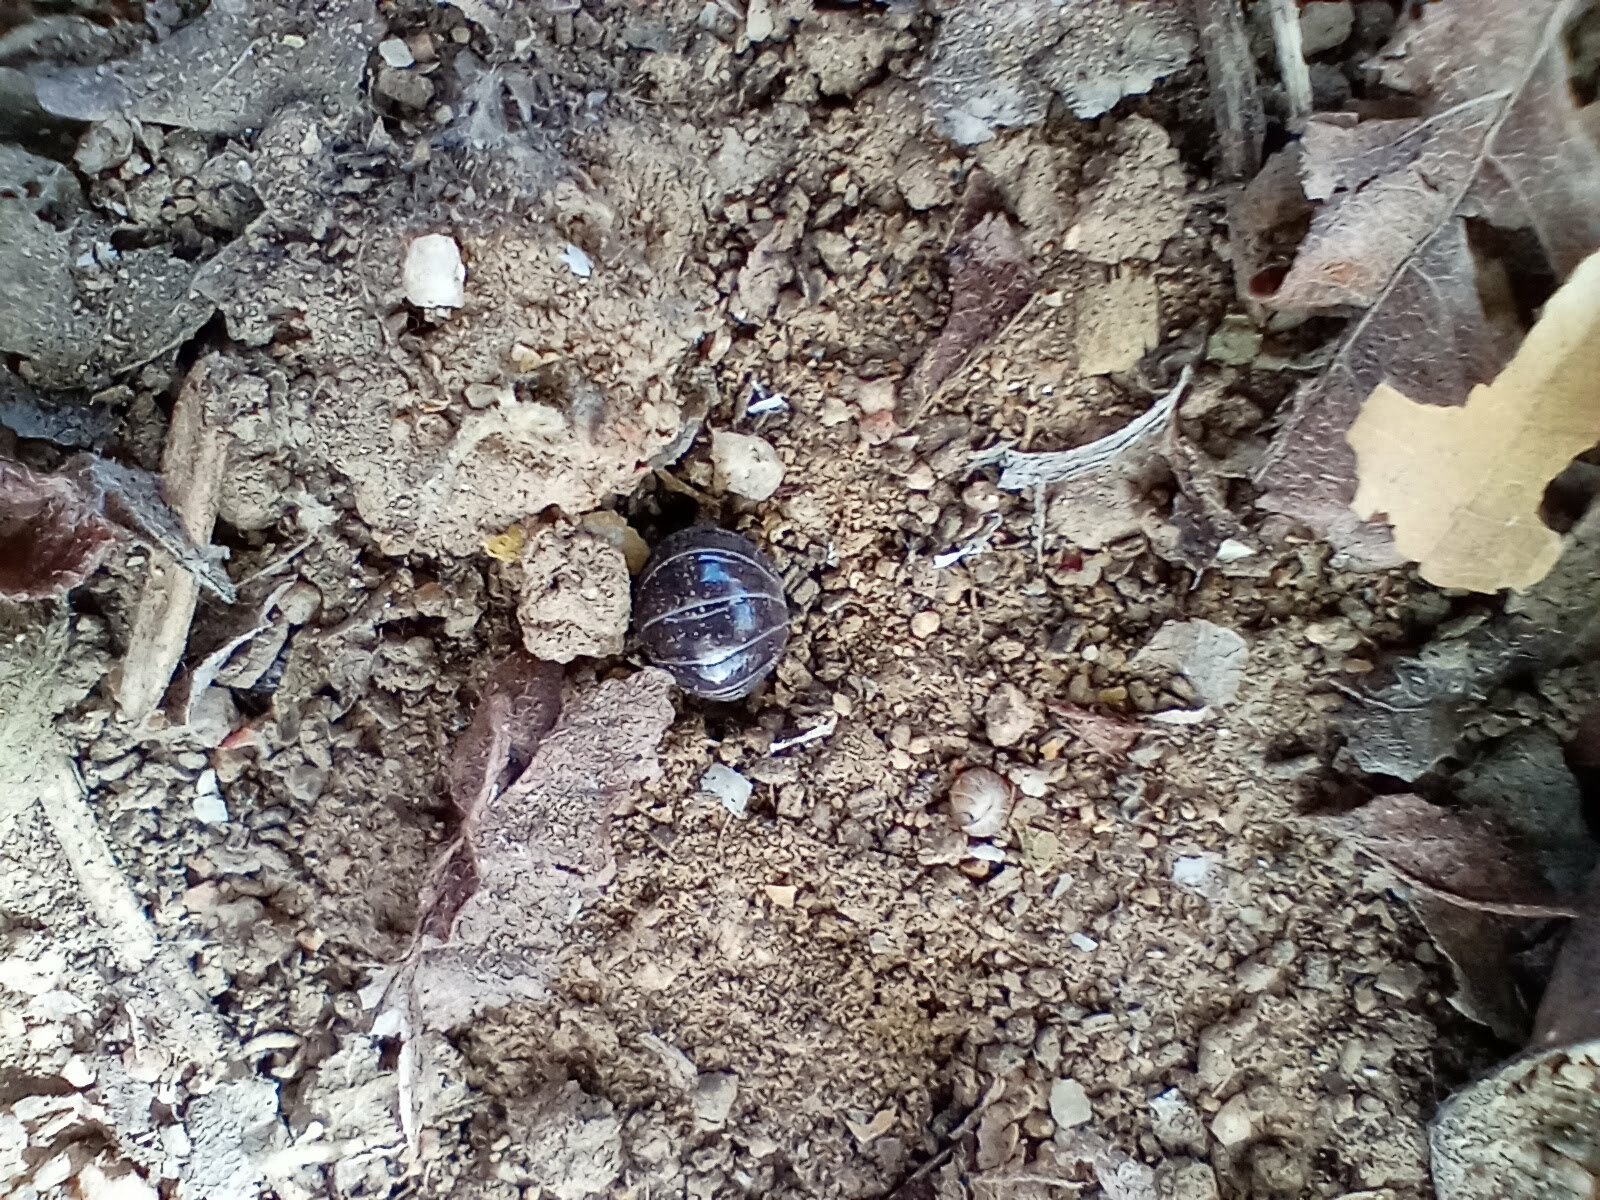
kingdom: Animalia
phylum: Arthropoda
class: Malacostraca
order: Isopoda
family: Armadillidiidae
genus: Armadillidium
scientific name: Armadillidium vulgare
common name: Common pill woodlouse
